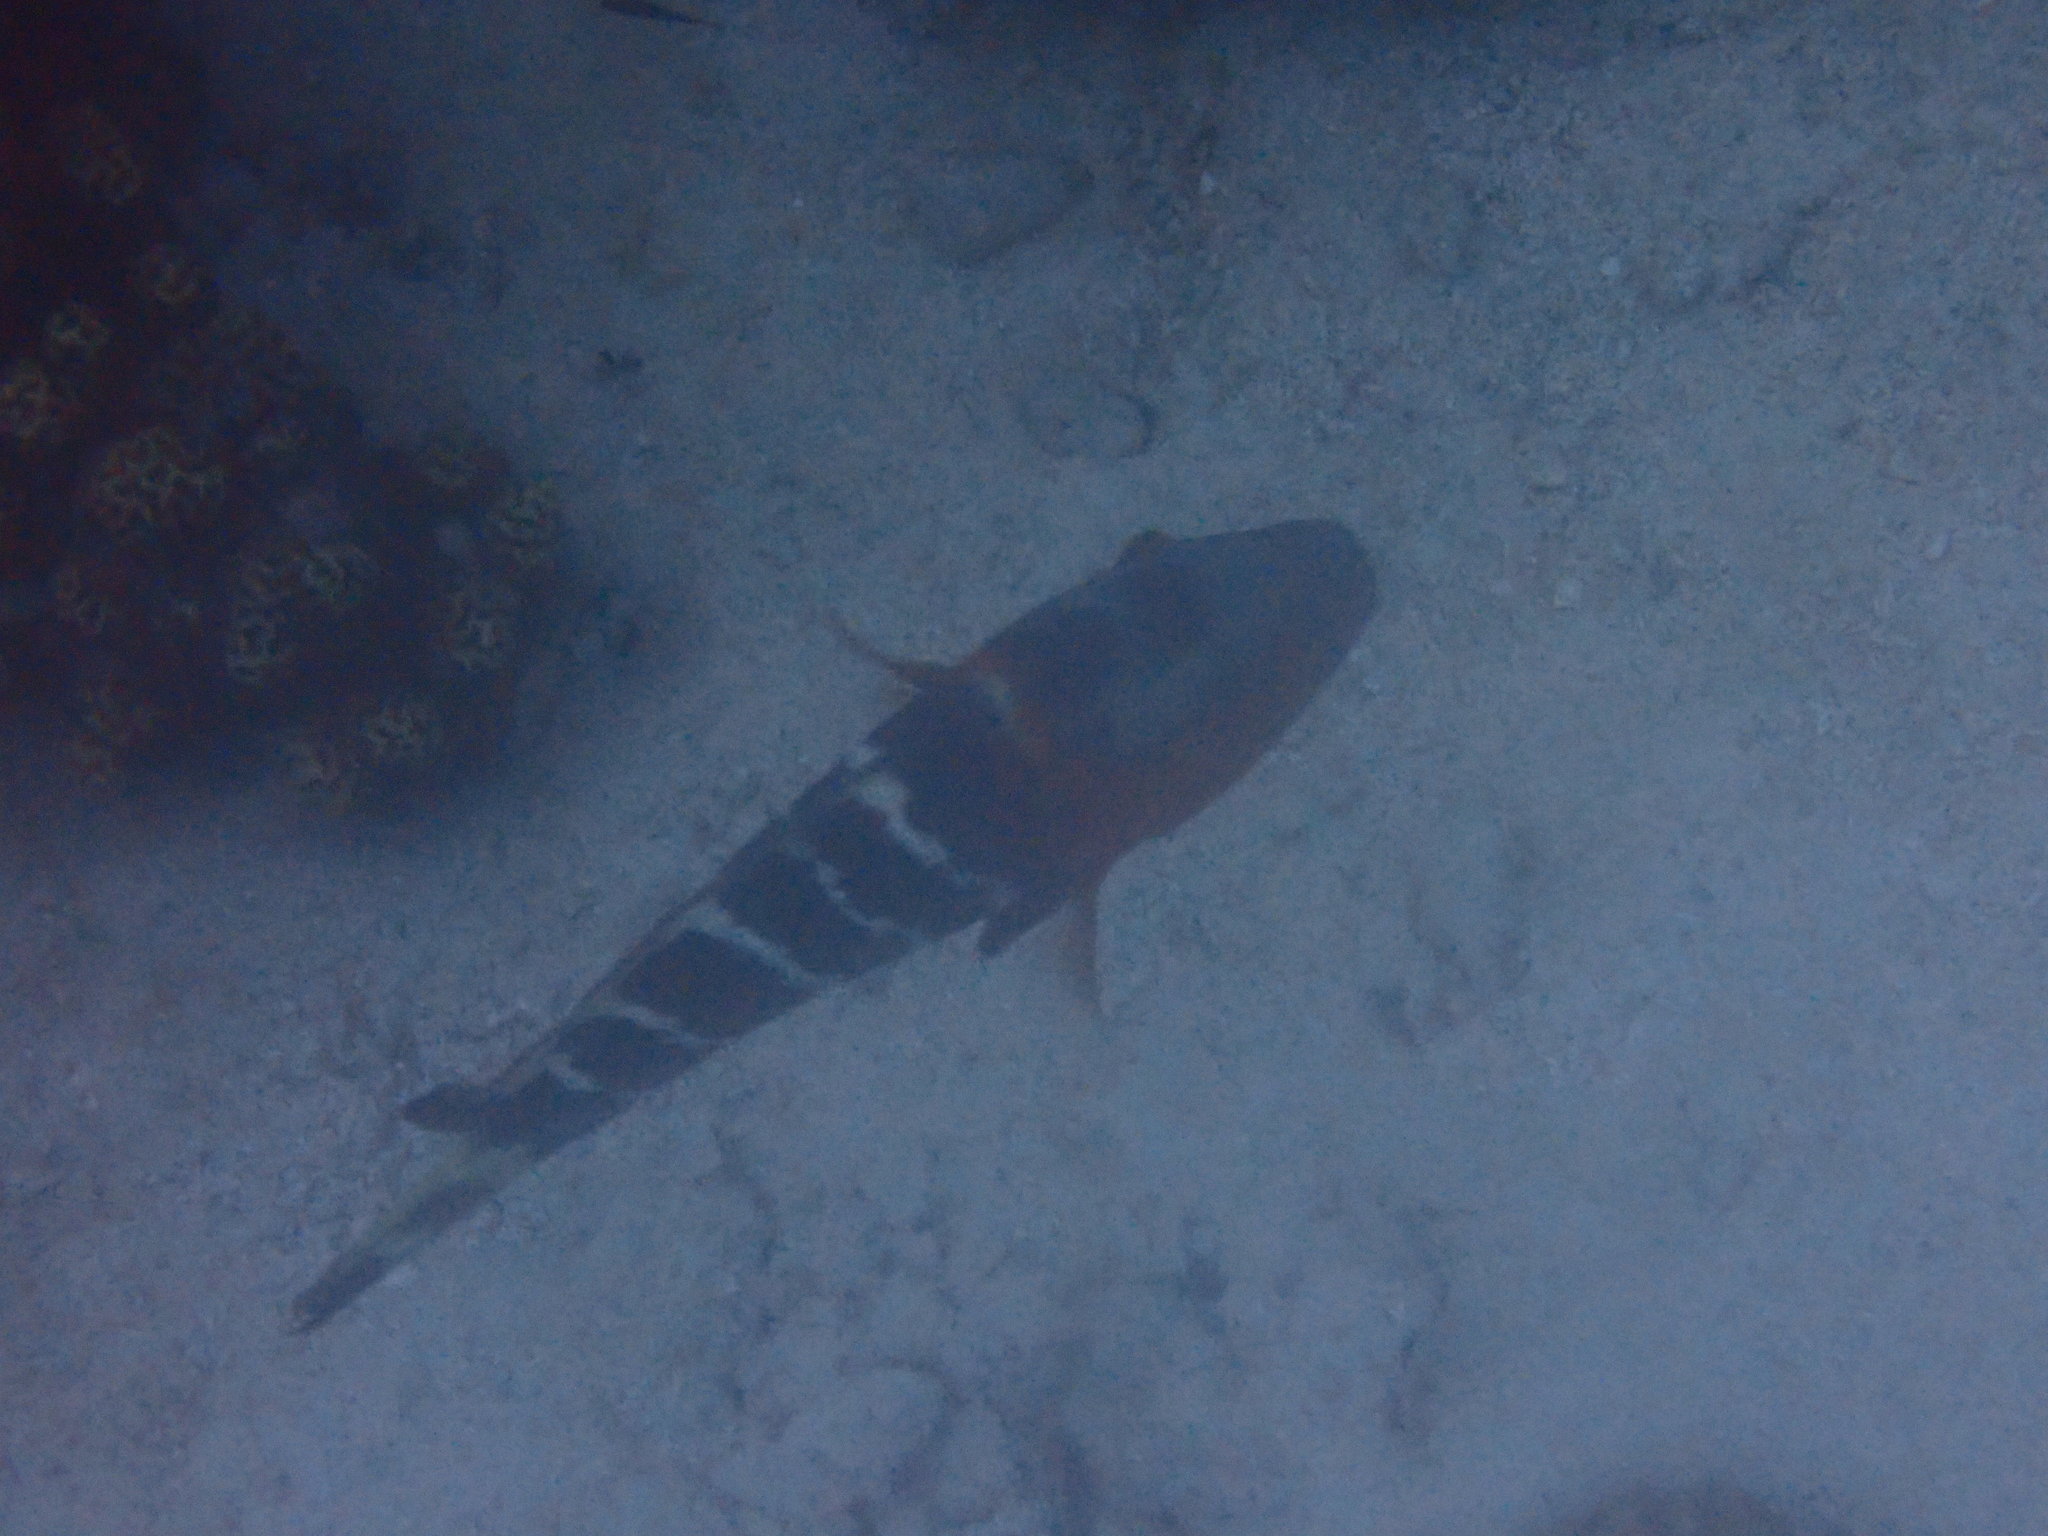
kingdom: Animalia
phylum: Chordata
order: Perciformes
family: Labridae
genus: Cheilinus
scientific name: Cheilinus fasciatus
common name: Red-breasted wrasse
